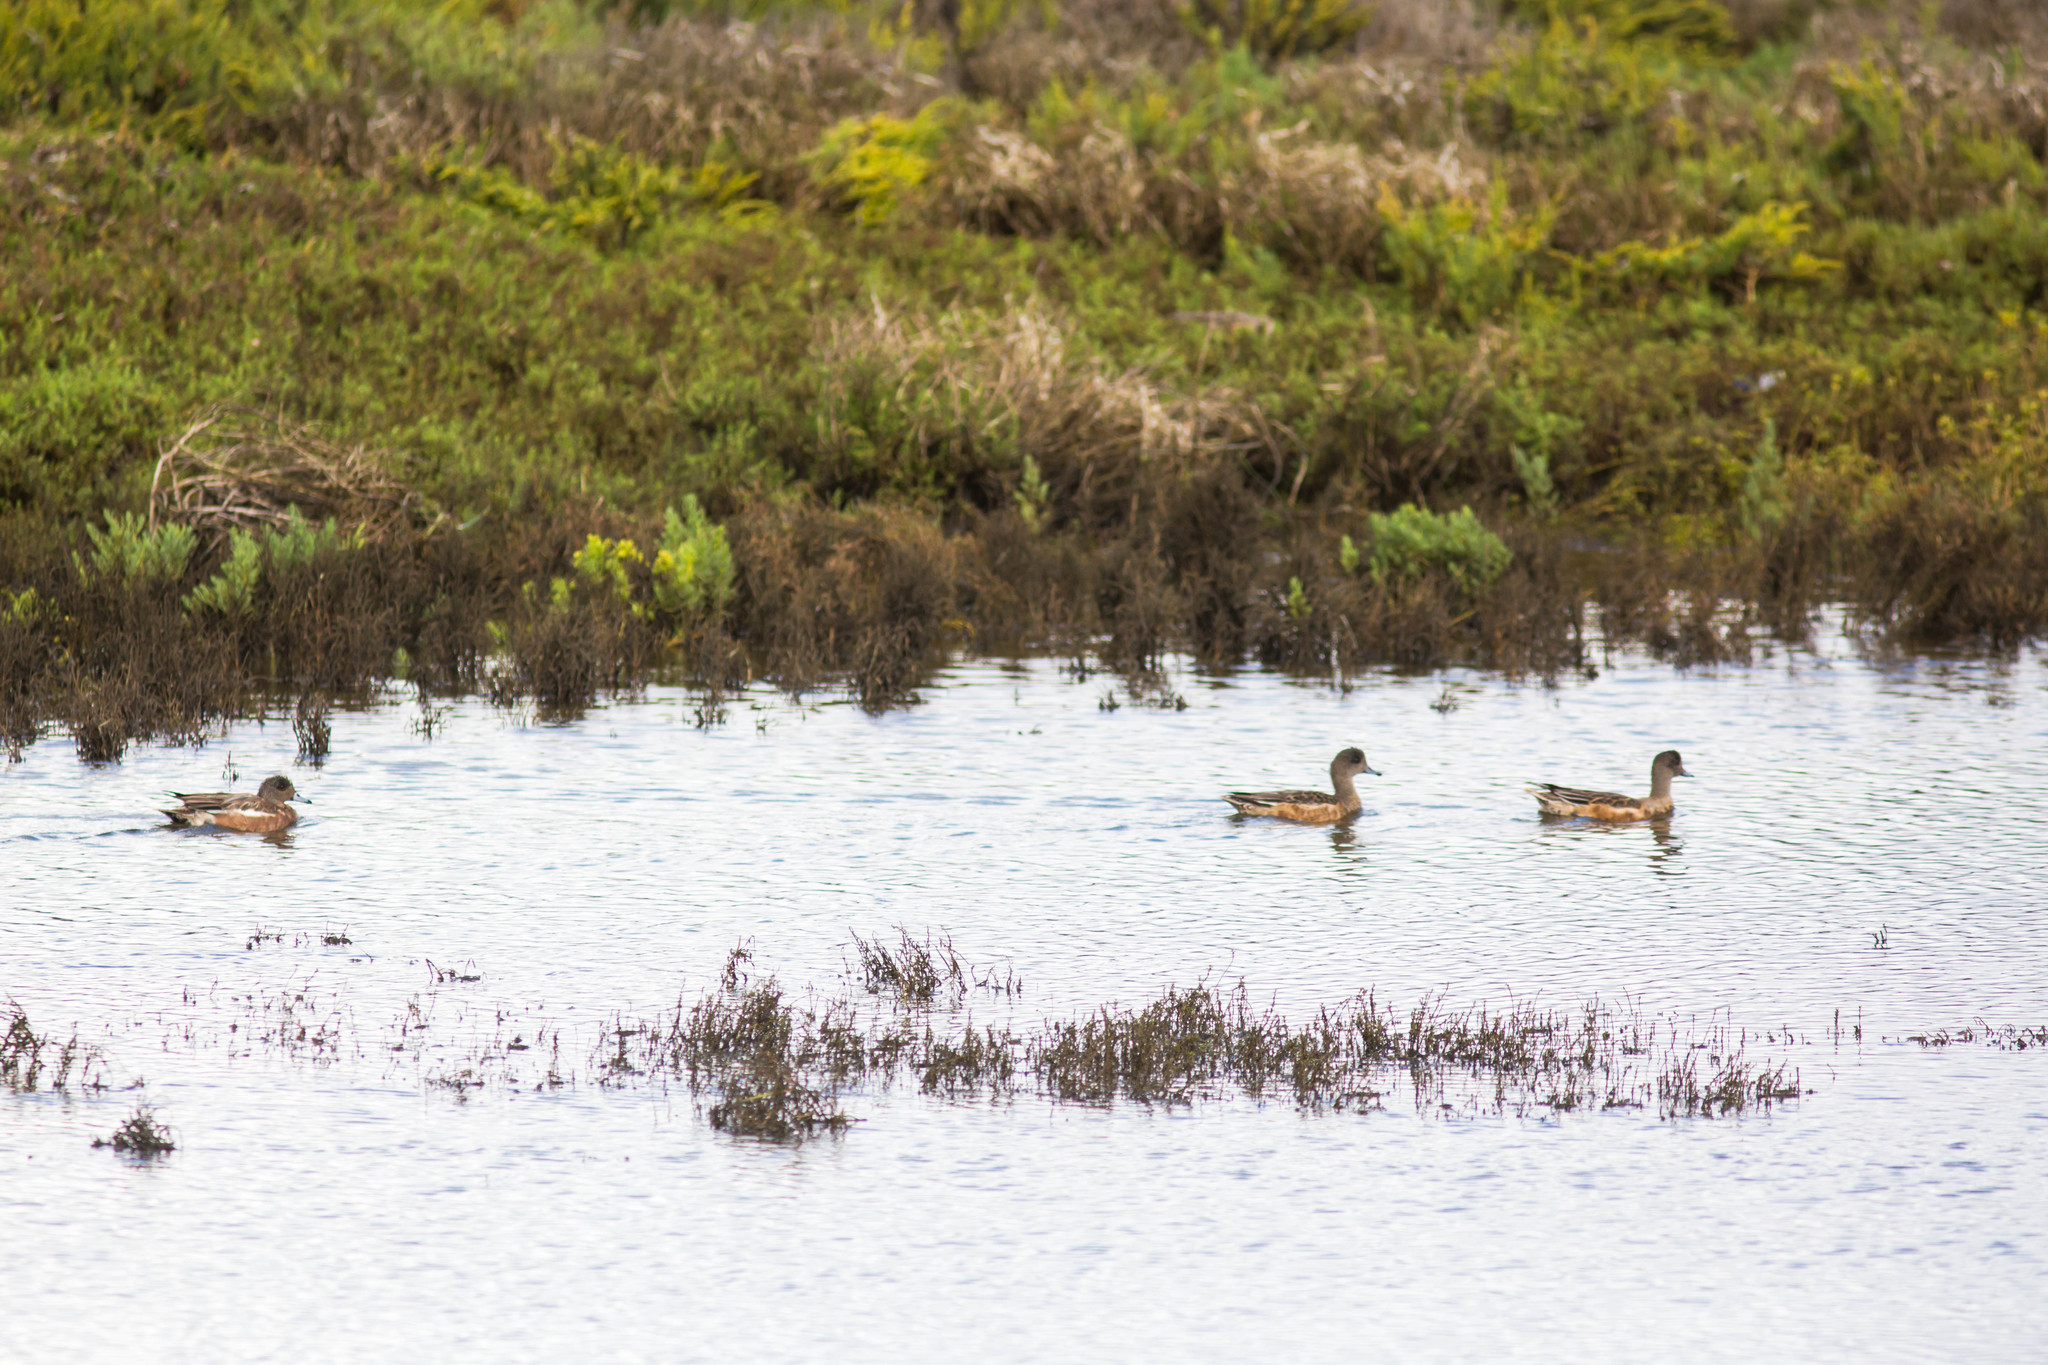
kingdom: Animalia
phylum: Chordata
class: Aves
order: Anseriformes
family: Anatidae
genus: Mareca
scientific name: Mareca americana
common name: American wigeon
